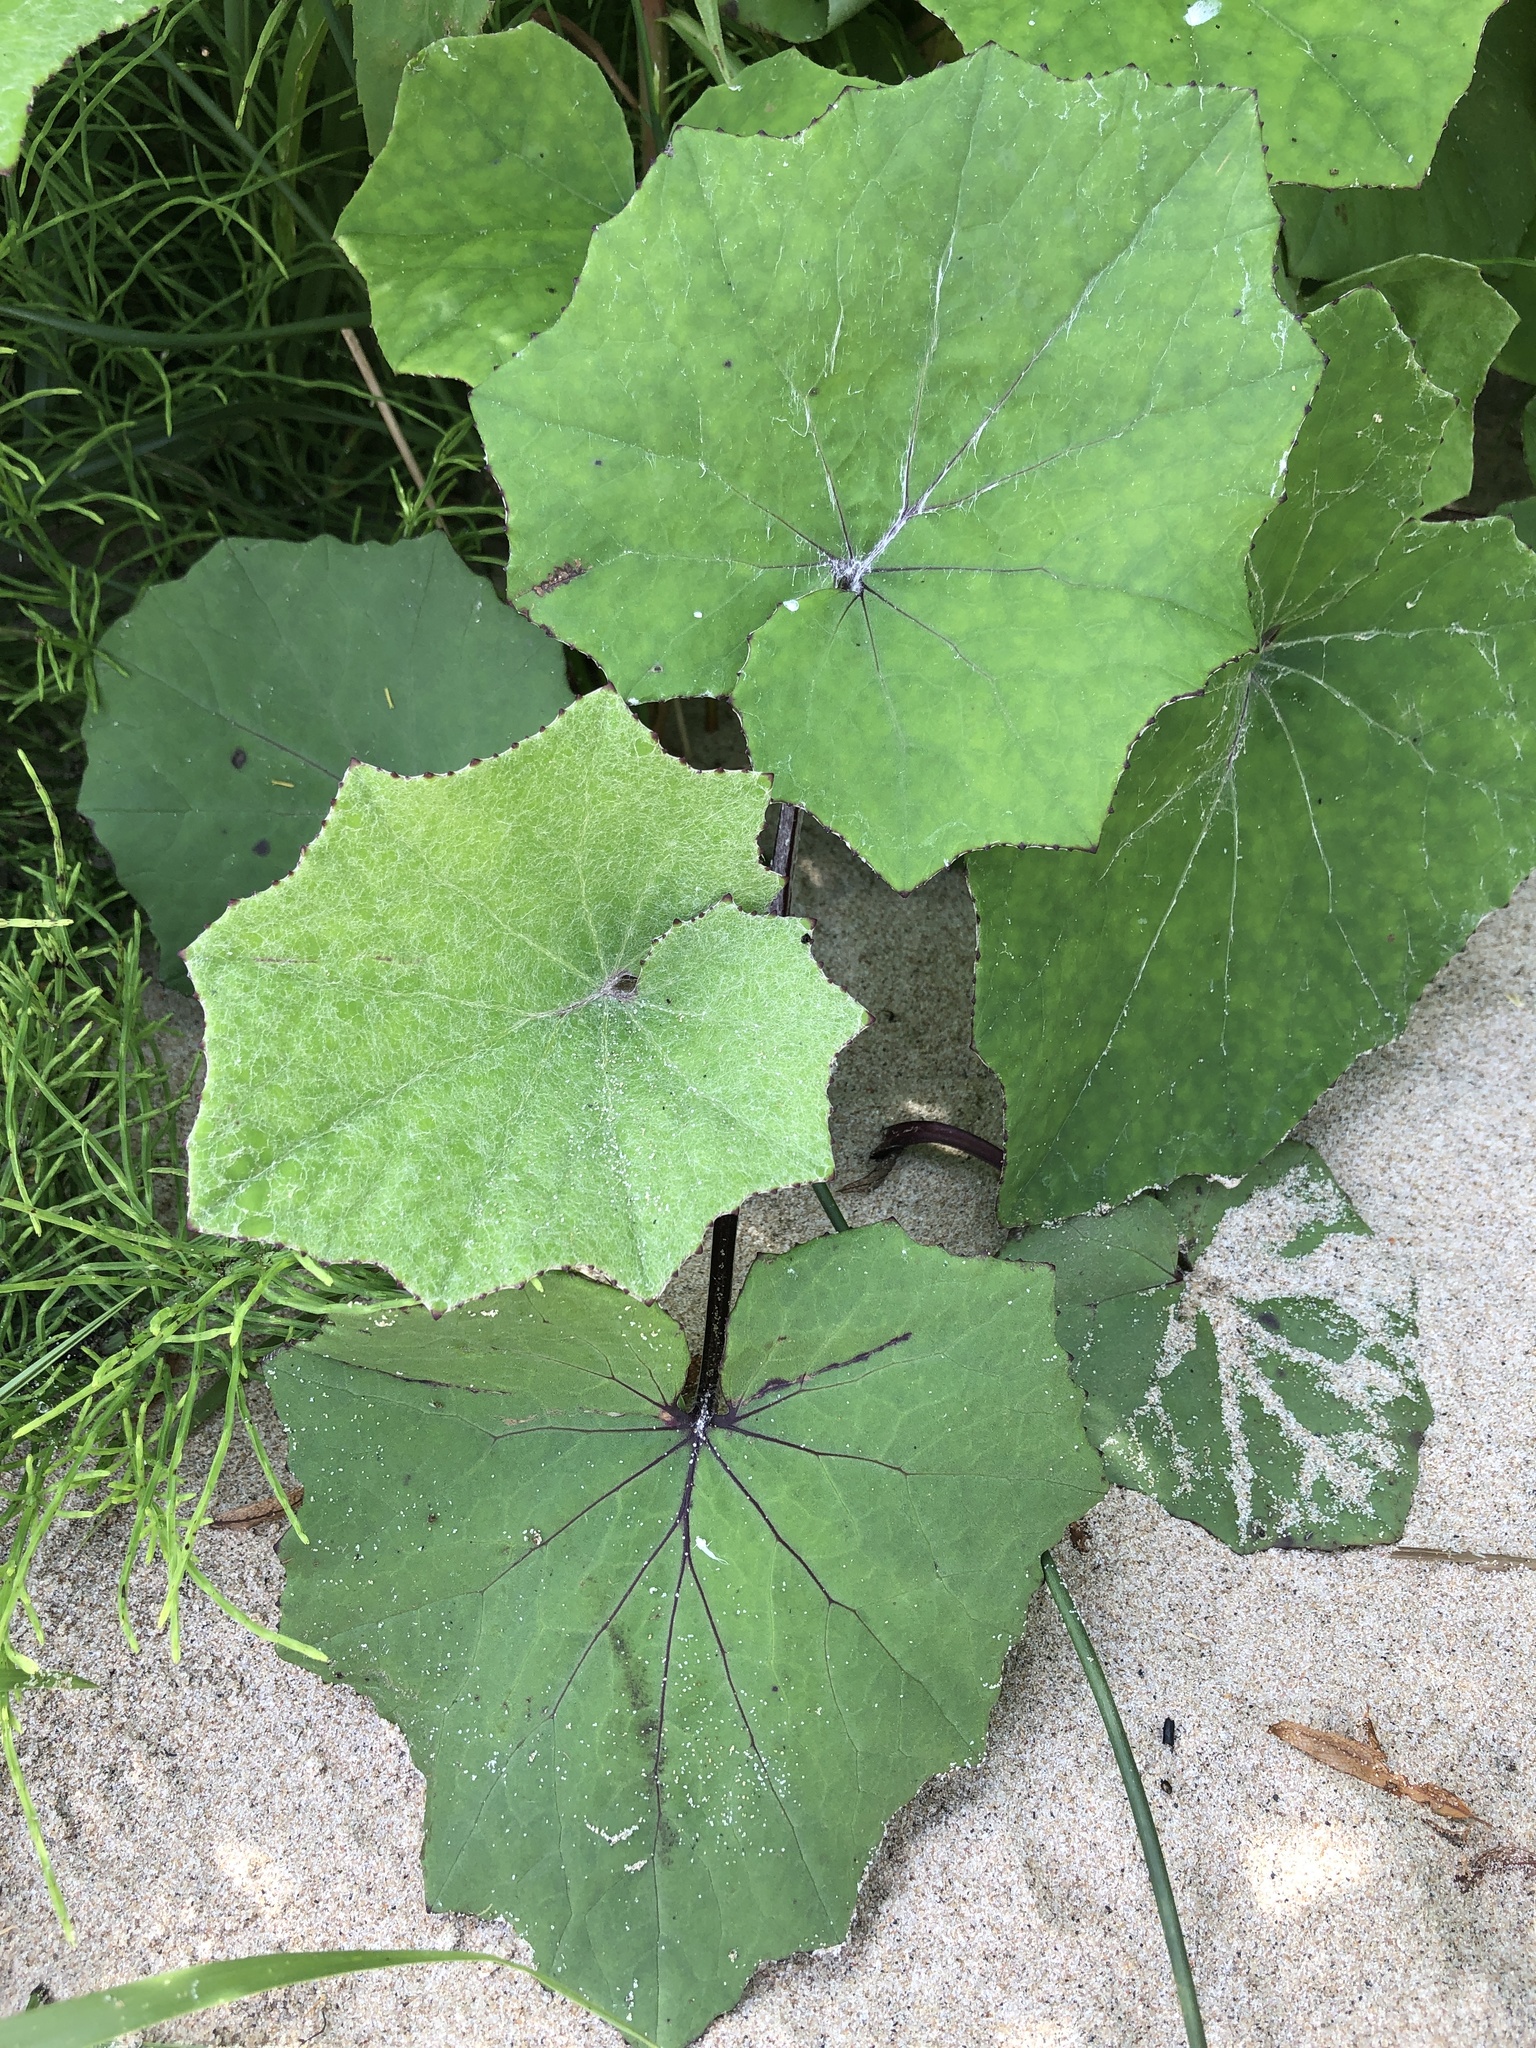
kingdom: Plantae
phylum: Tracheophyta
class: Magnoliopsida
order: Asterales
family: Asteraceae
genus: Tussilago
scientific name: Tussilago farfara
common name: Coltsfoot
